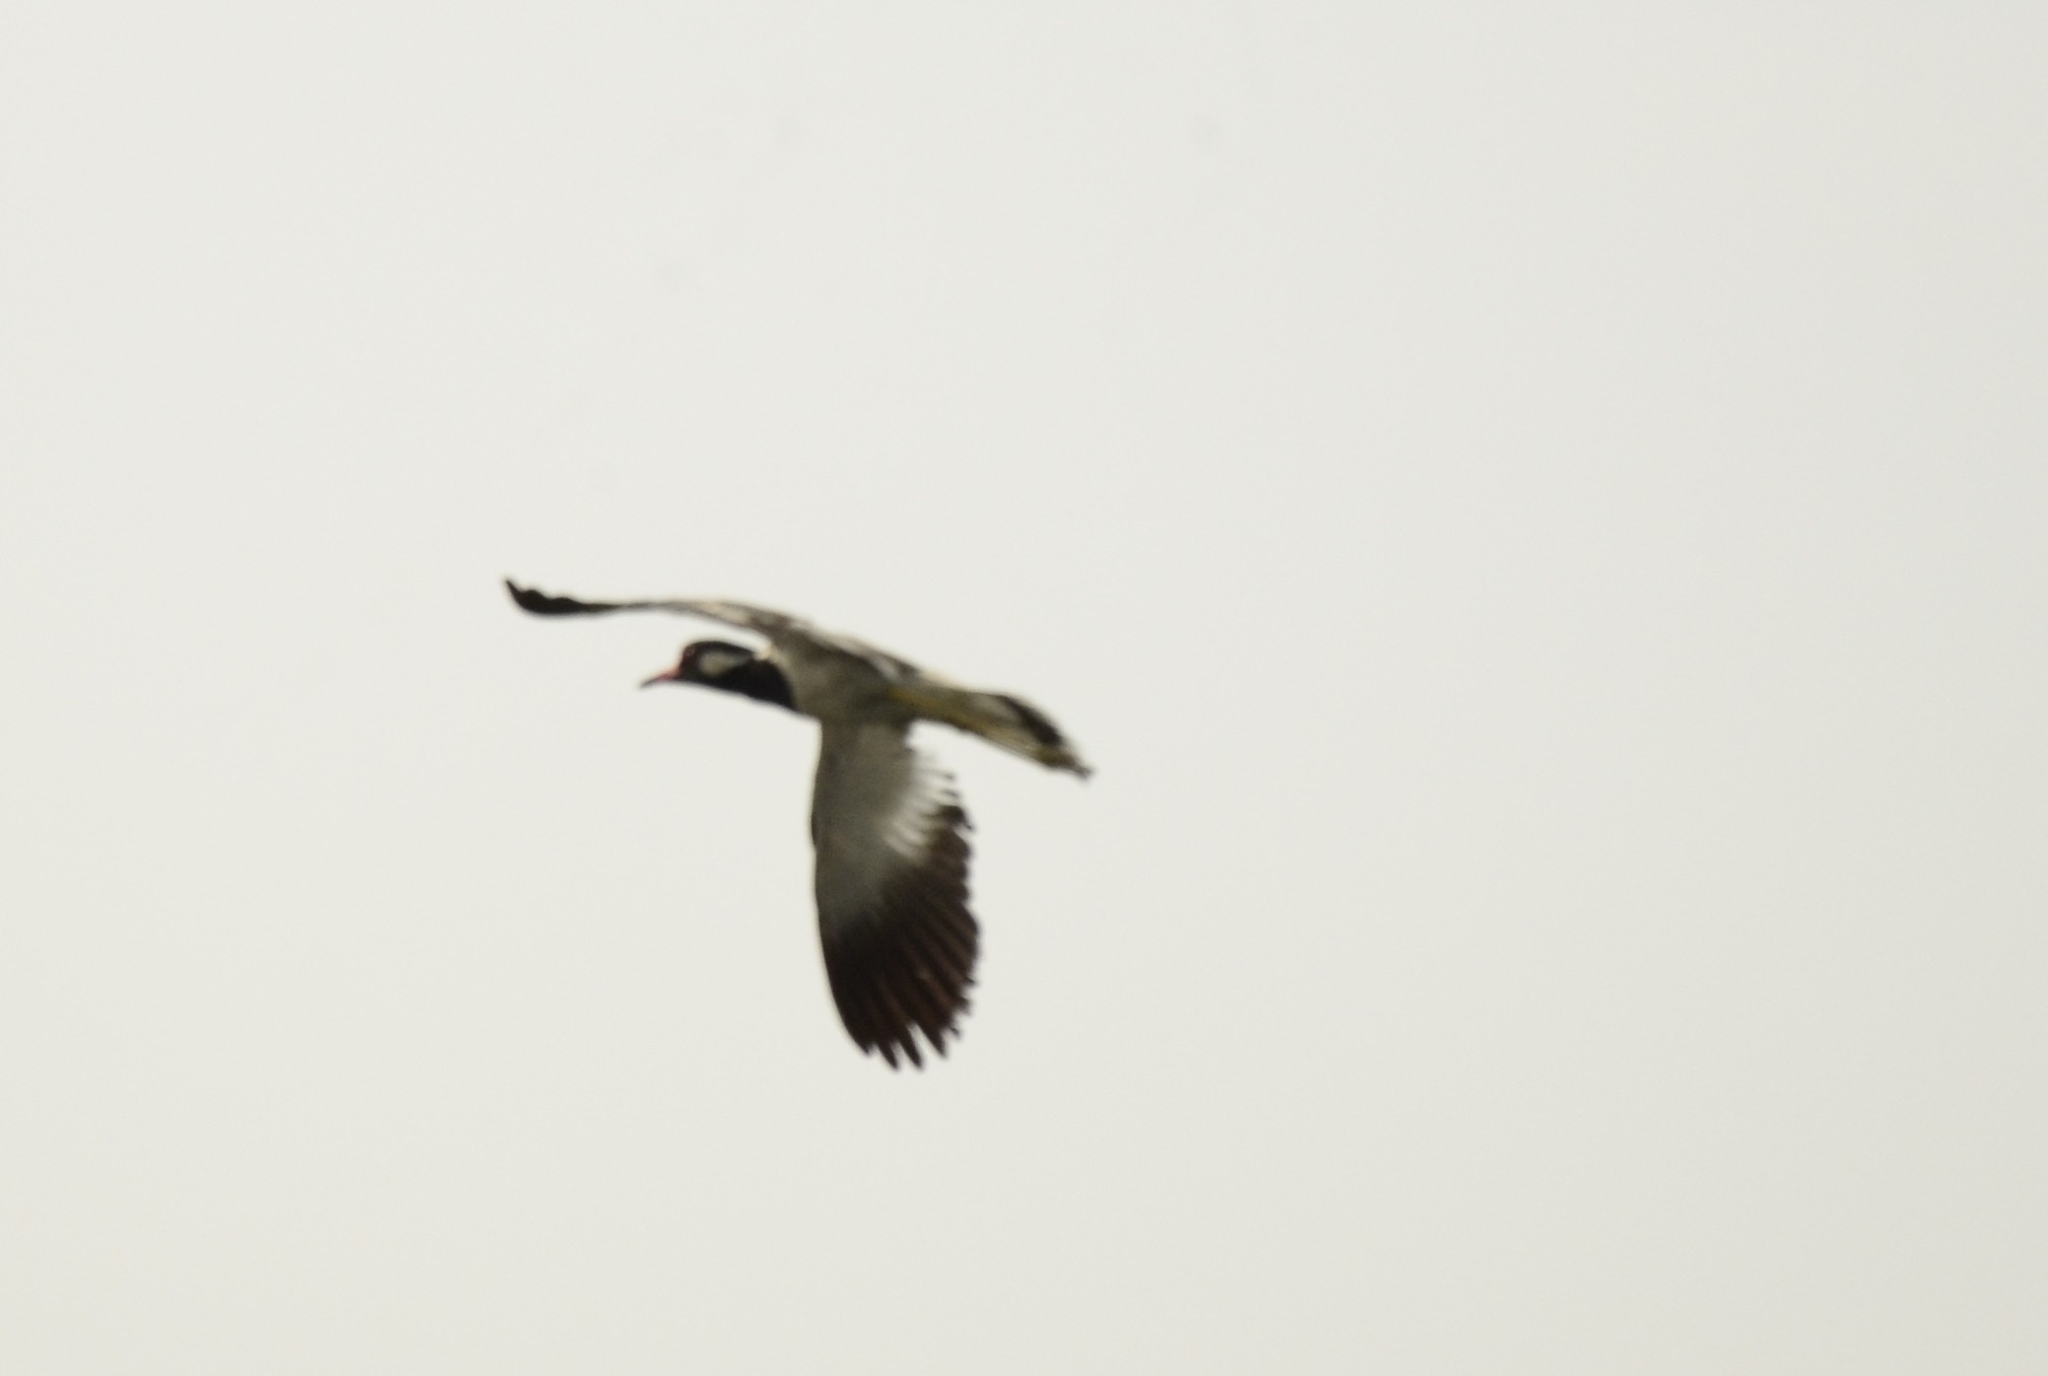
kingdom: Animalia
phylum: Chordata
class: Aves
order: Charadriiformes
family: Charadriidae
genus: Vanellus
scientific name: Vanellus indicus
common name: Red-wattled lapwing
